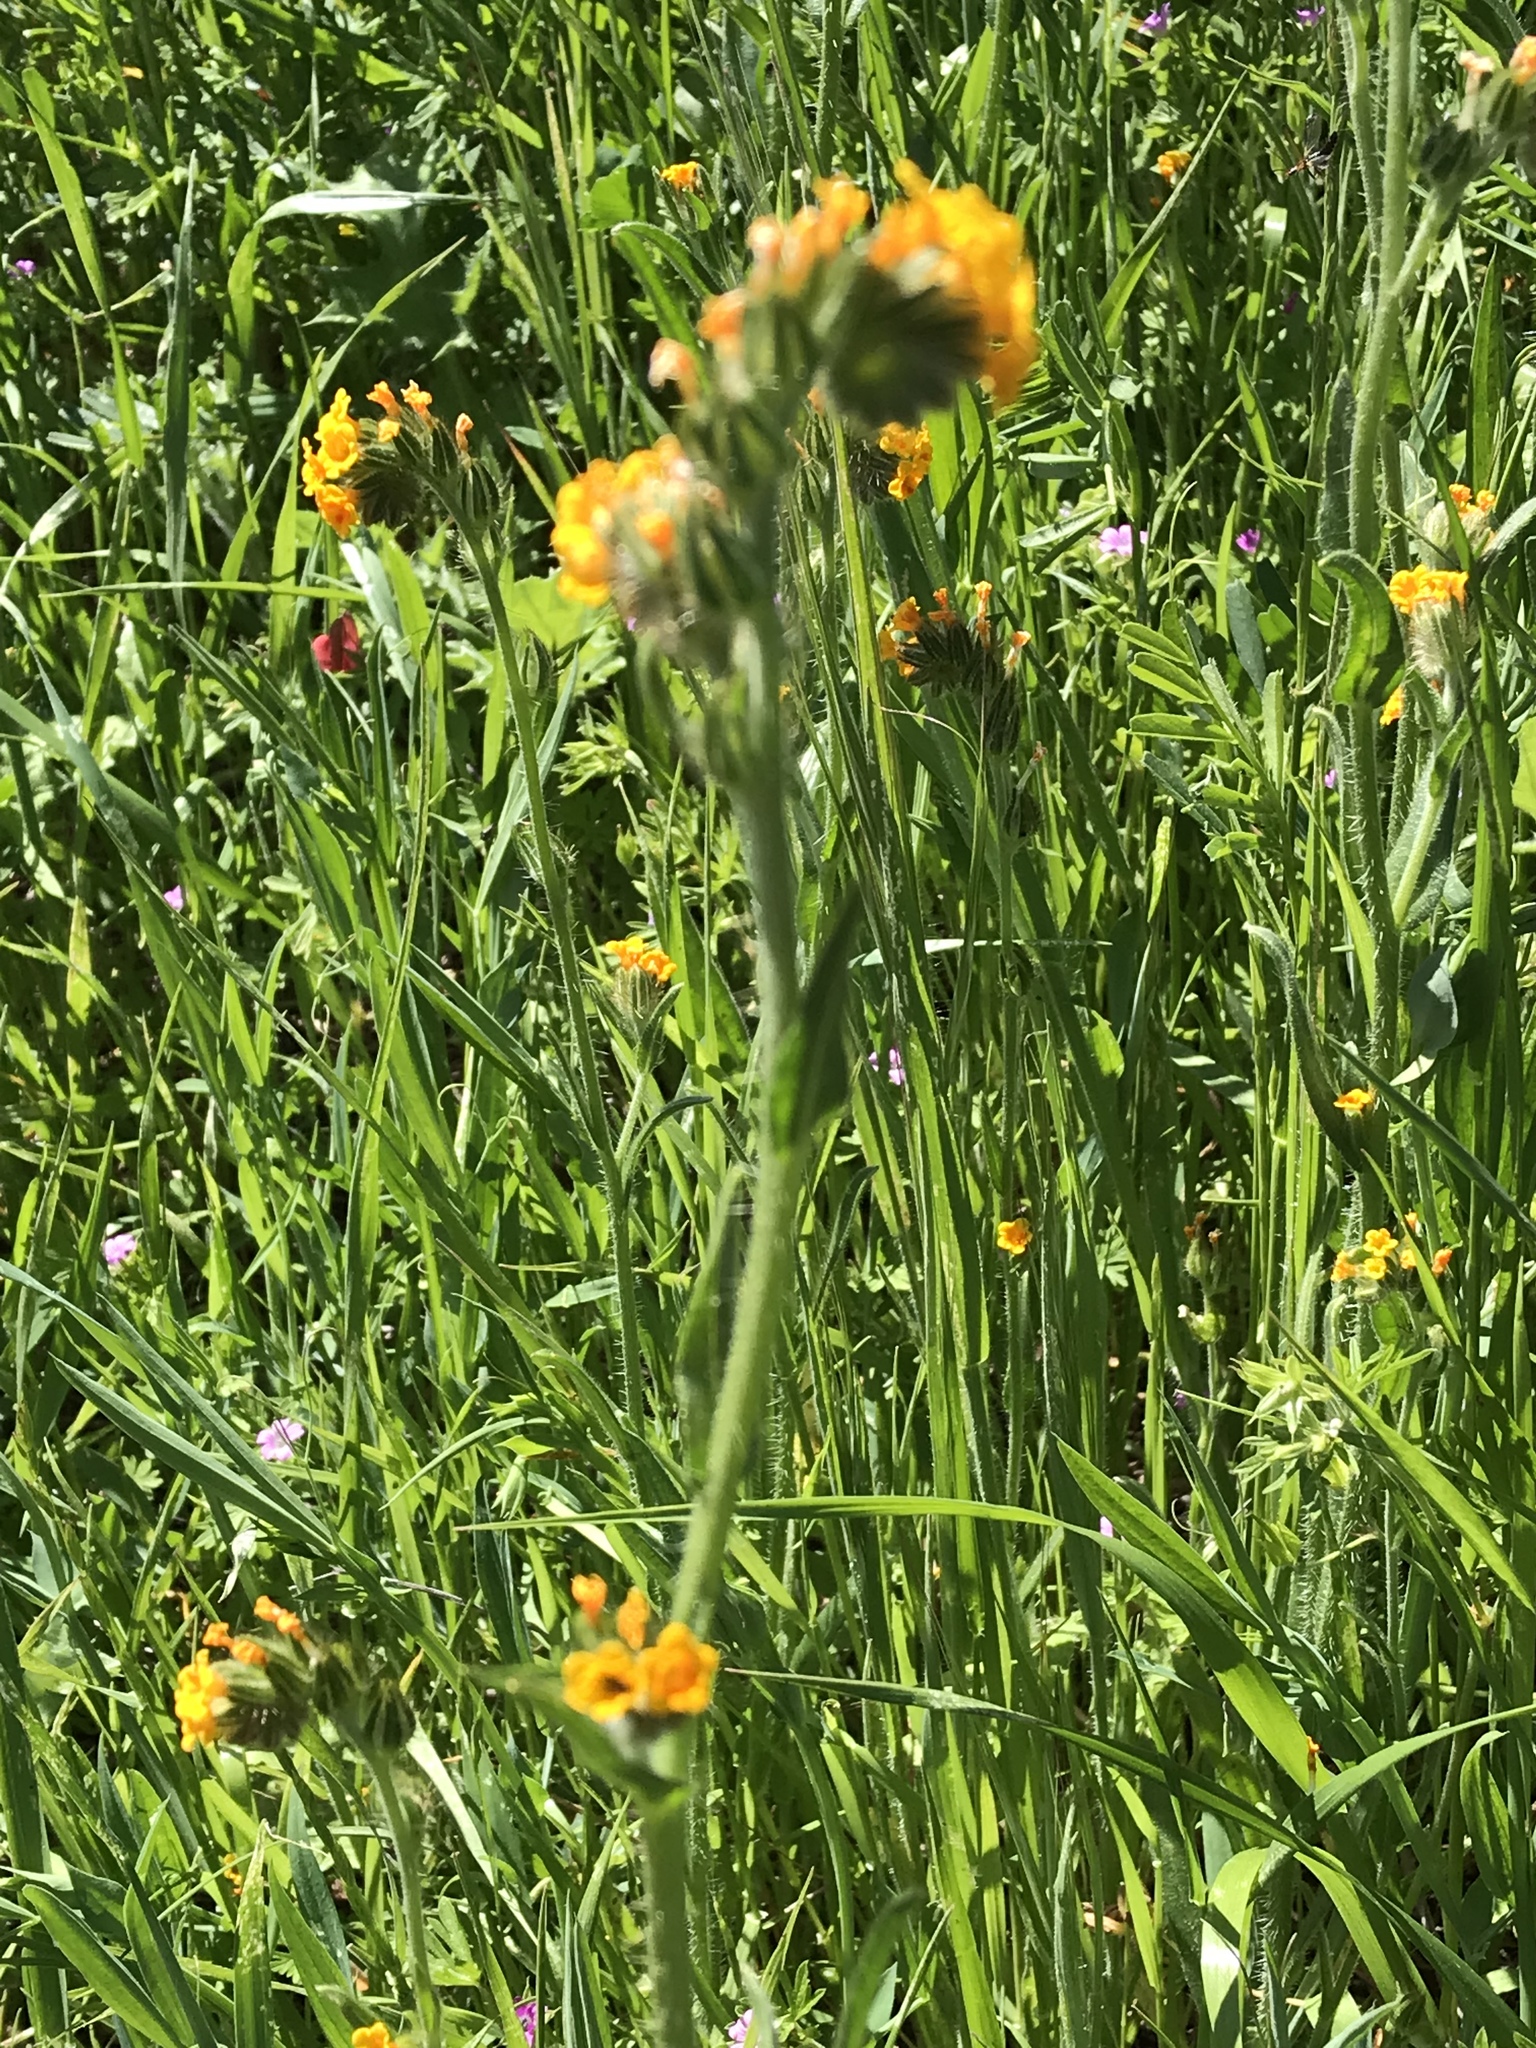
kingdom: Plantae
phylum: Tracheophyta
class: Magnoliopsida
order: Boraginales
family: Boraginaceae
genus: Amsinckia
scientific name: Amsinckia menziesii
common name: Menzies' fiddleneck
